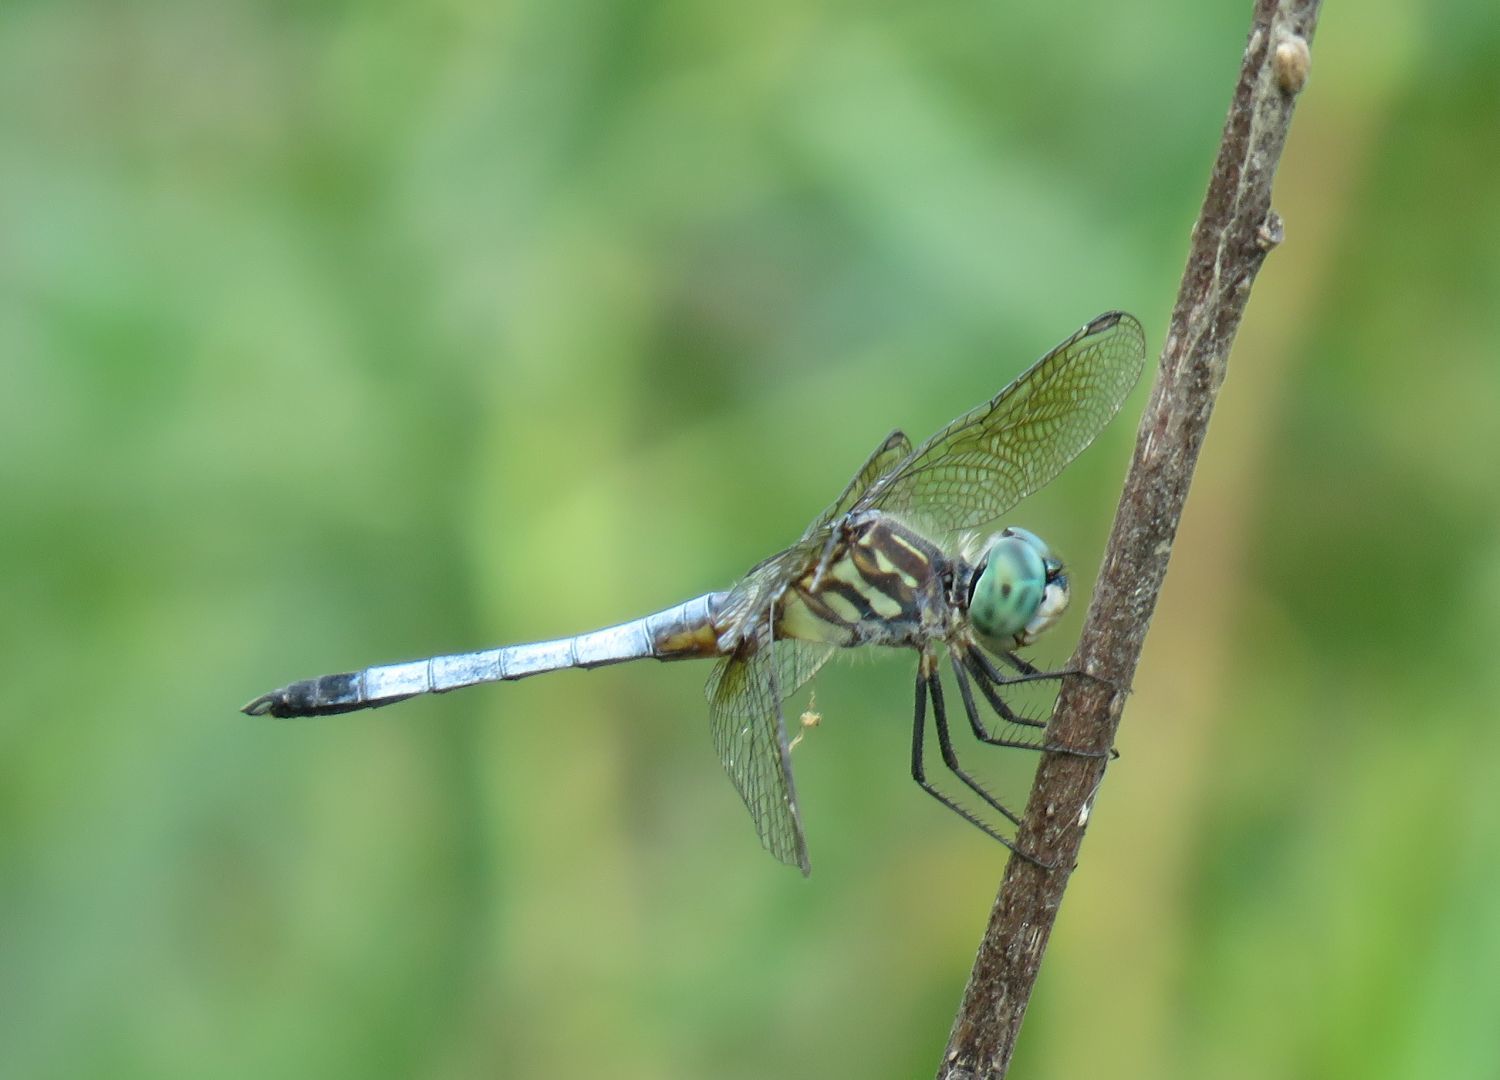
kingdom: Animalia
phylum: Arthropoda
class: Insecta
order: Odonata
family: Libellulidae
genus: Pachydiplax
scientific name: Pachydiplax longipennis
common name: Blue dasher
